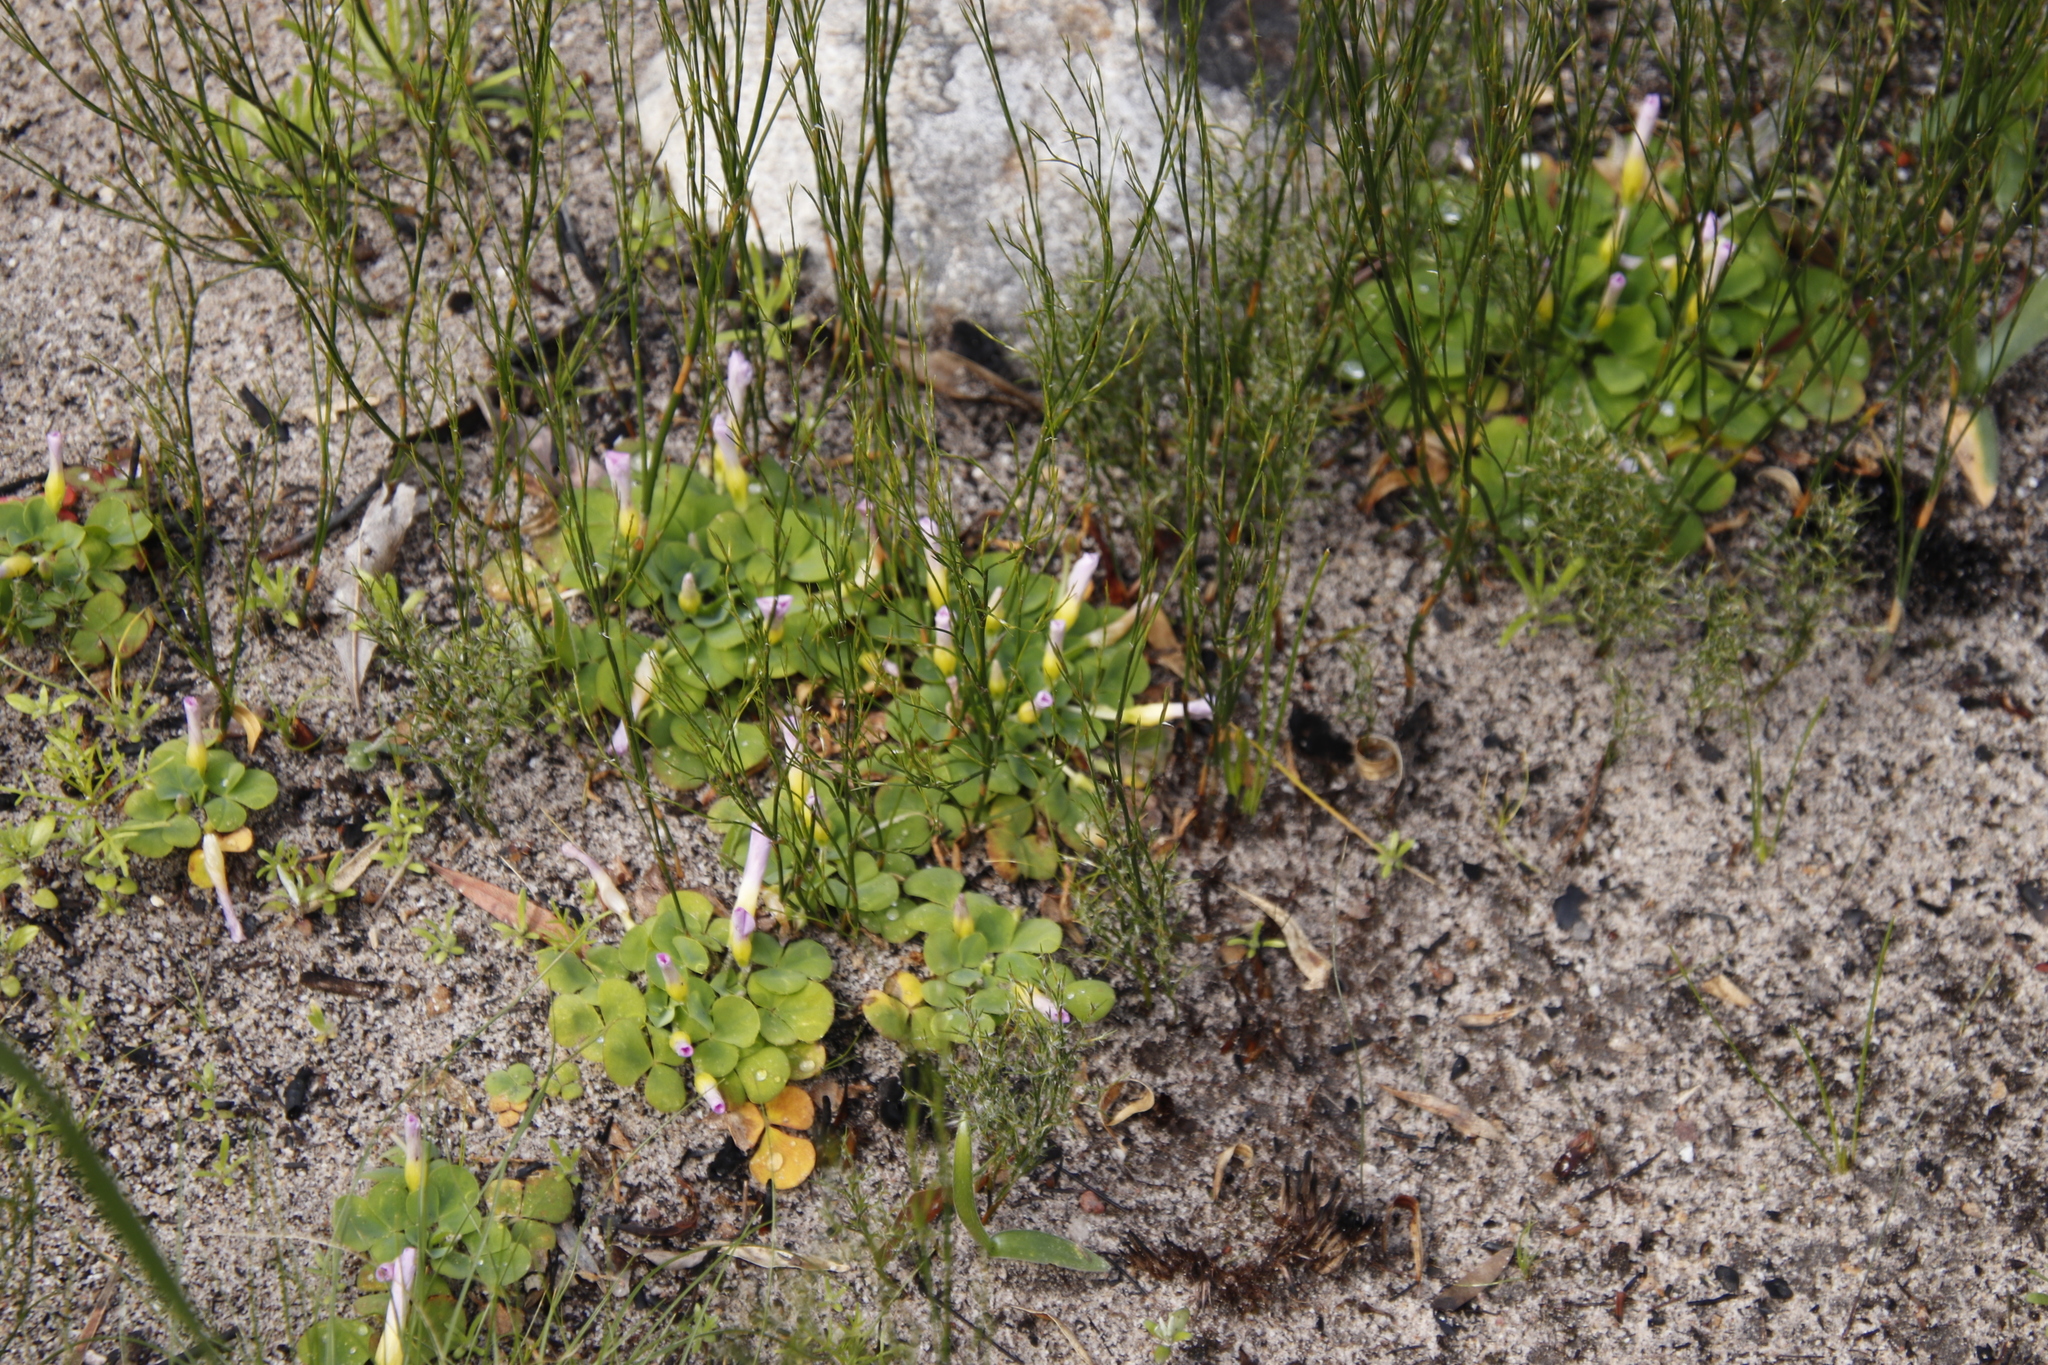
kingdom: Plantae
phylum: Tracheophyta
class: Magnoliopsida
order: Oxalidales
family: Oxalidaceae
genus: Oxalis
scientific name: Oxalis purpurea
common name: Purple woodsorrel
